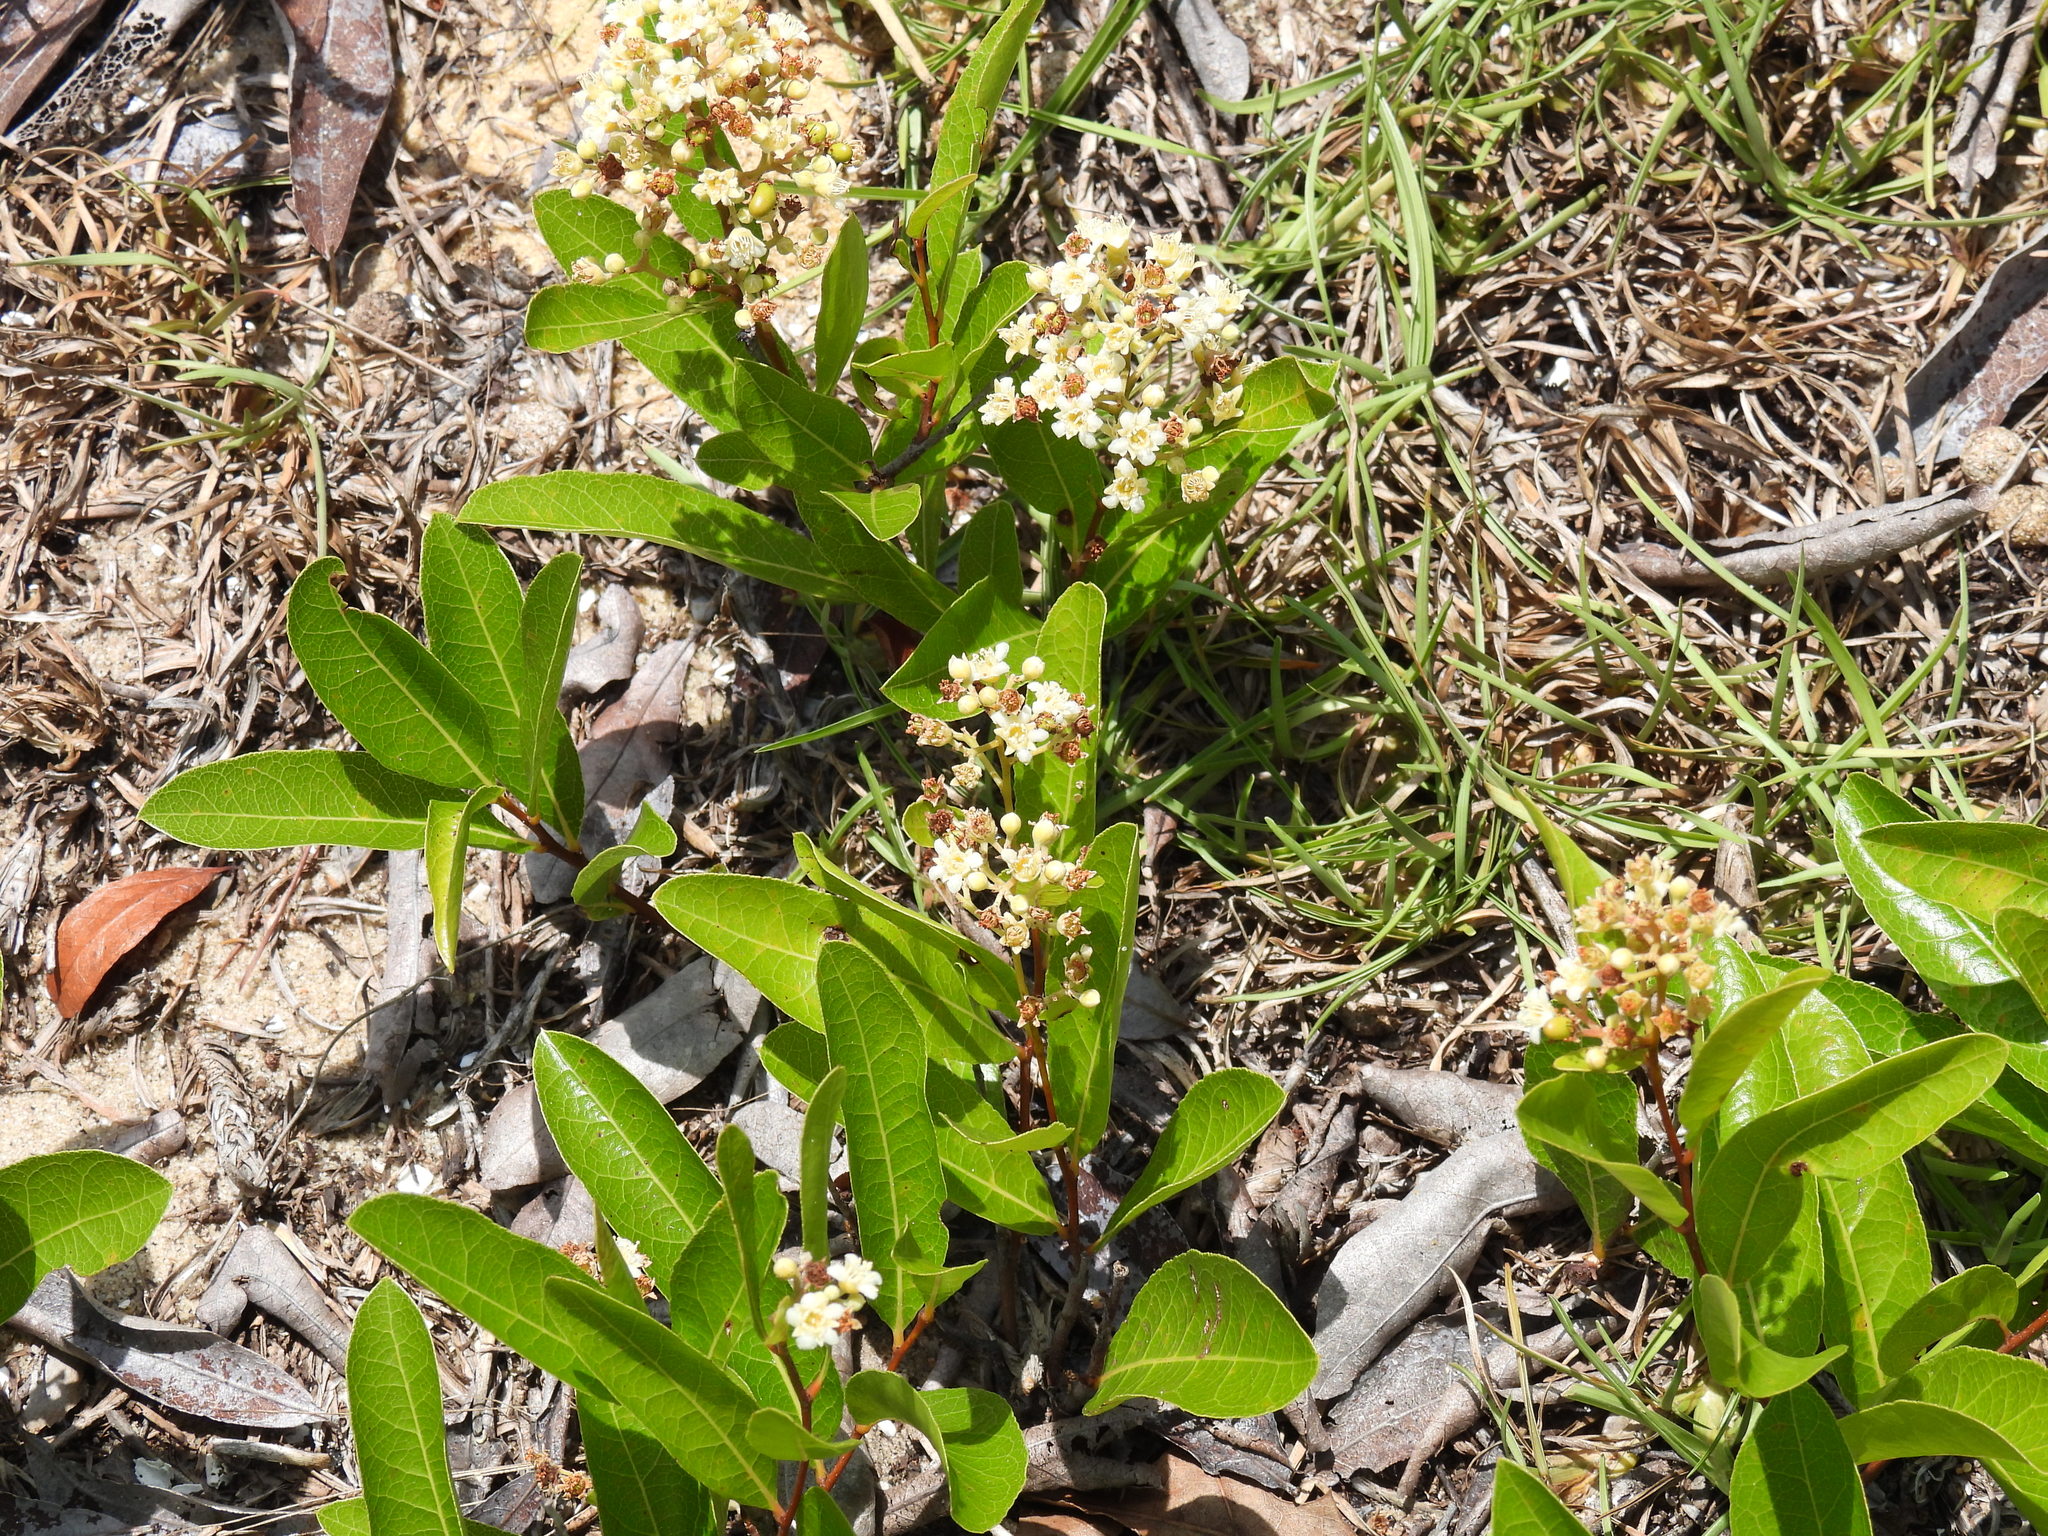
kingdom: Plantae
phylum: Tracheophyta
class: Magnoliopsida
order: Malpighiales
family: Chrysobalanaceae
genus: Geobalanus
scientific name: Geobalanus oblongifolius
